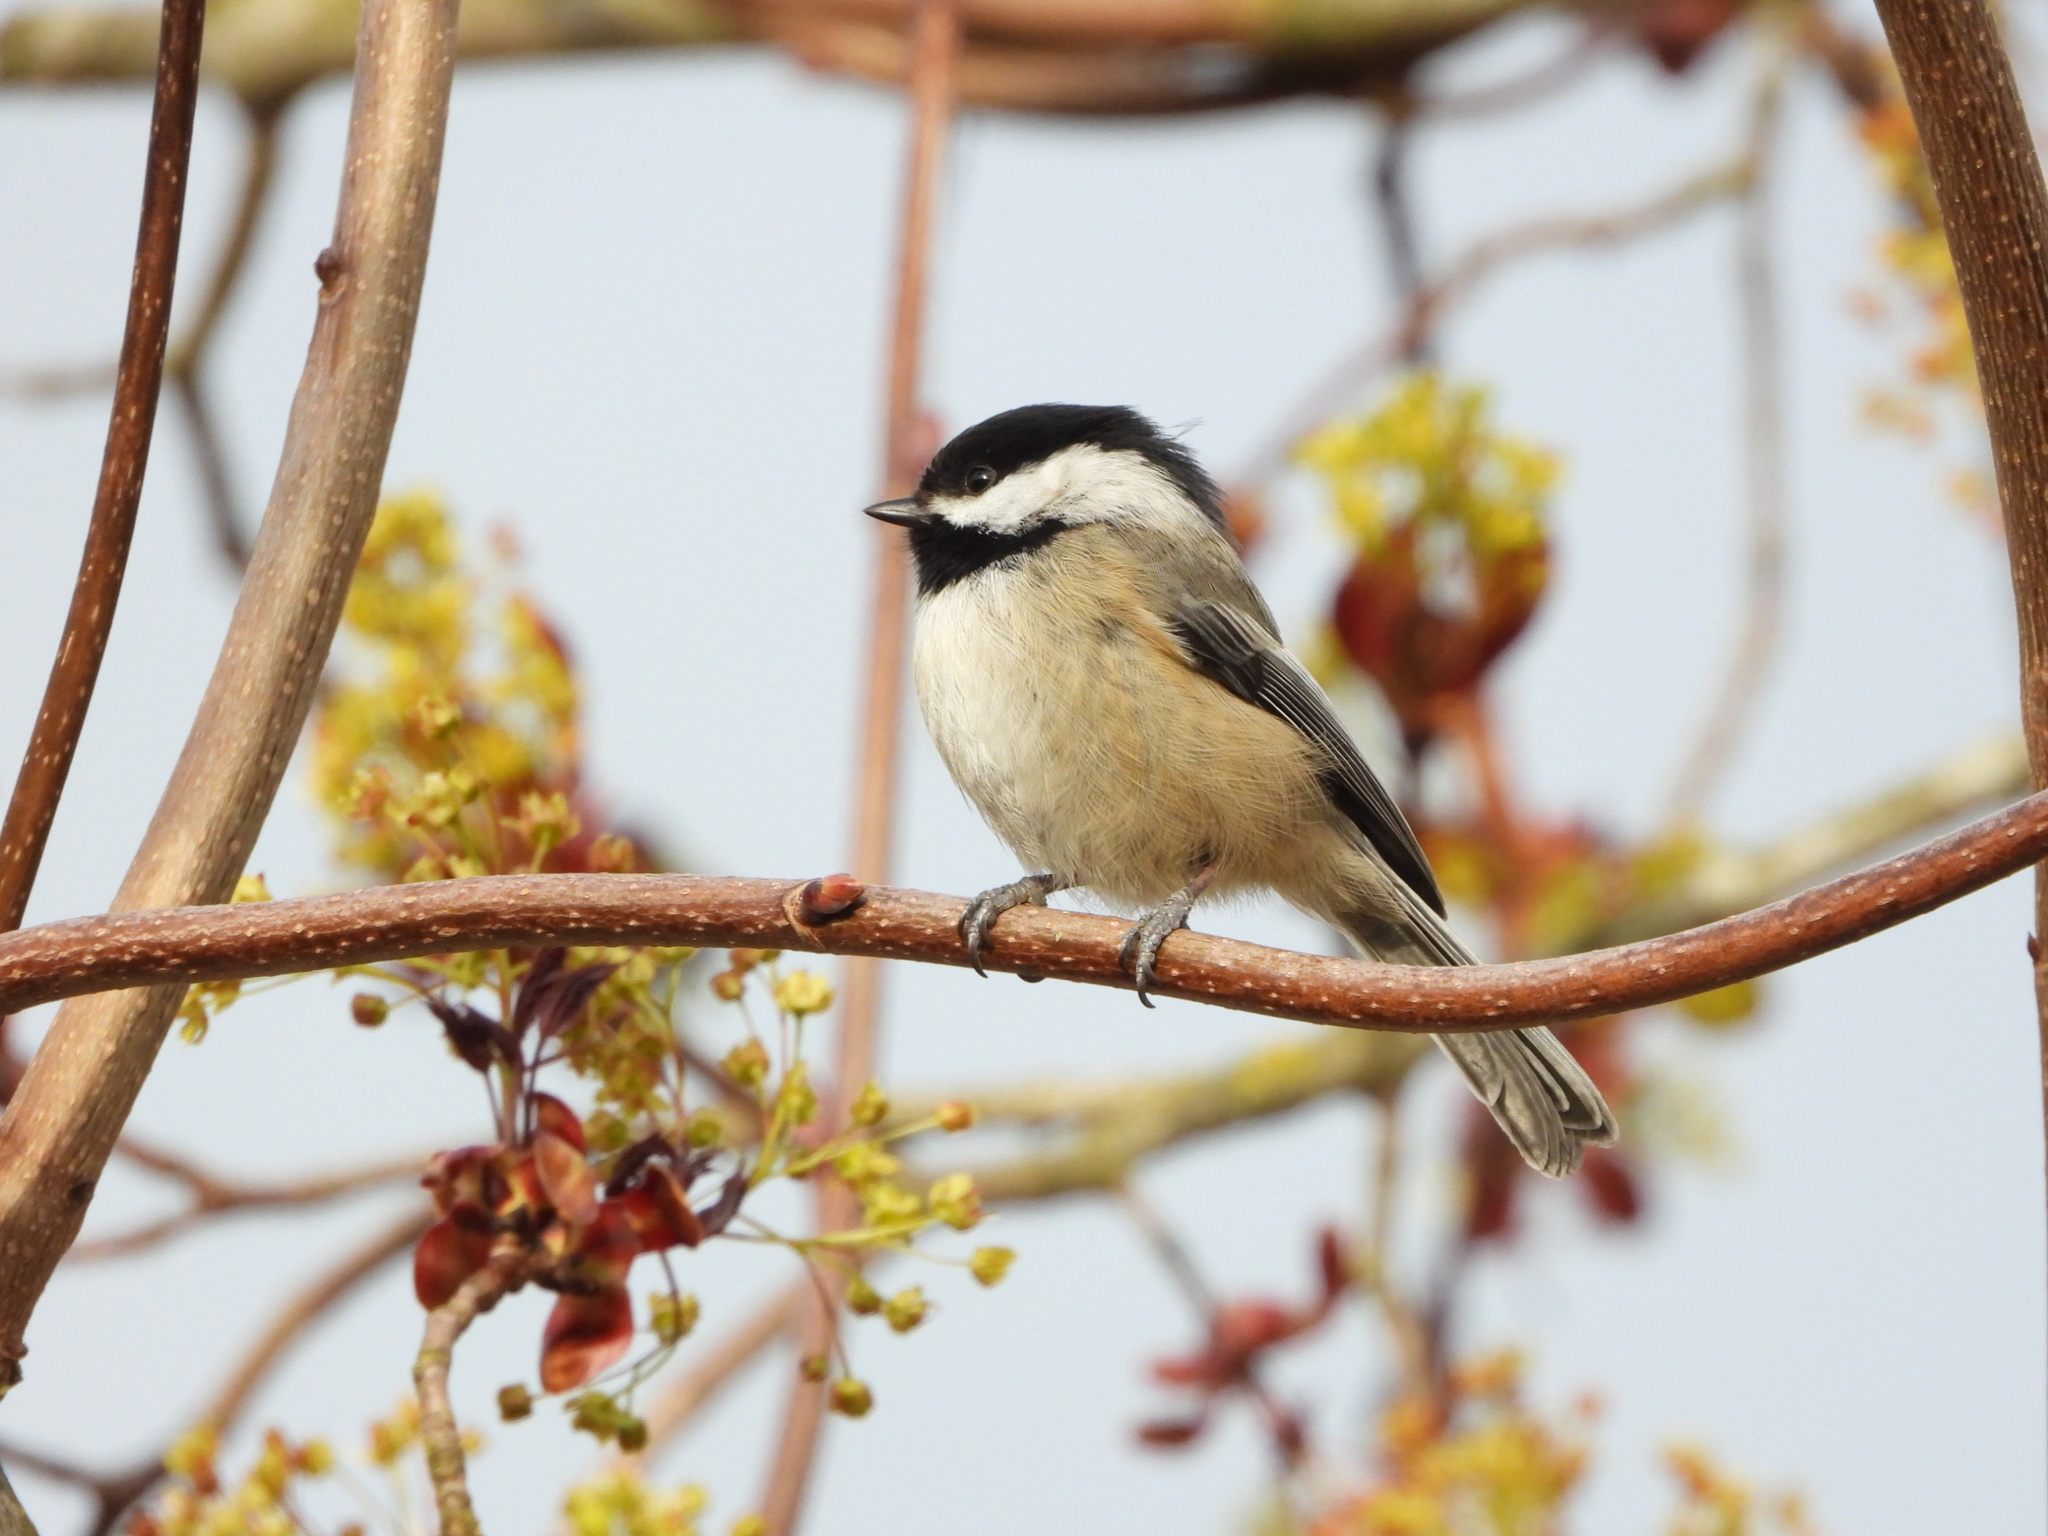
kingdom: Animalia
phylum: Chordata
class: Aves
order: Passeriformes
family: Paridae
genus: Poecile
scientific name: Poecile atricapillus
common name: Black-capped chickadee
